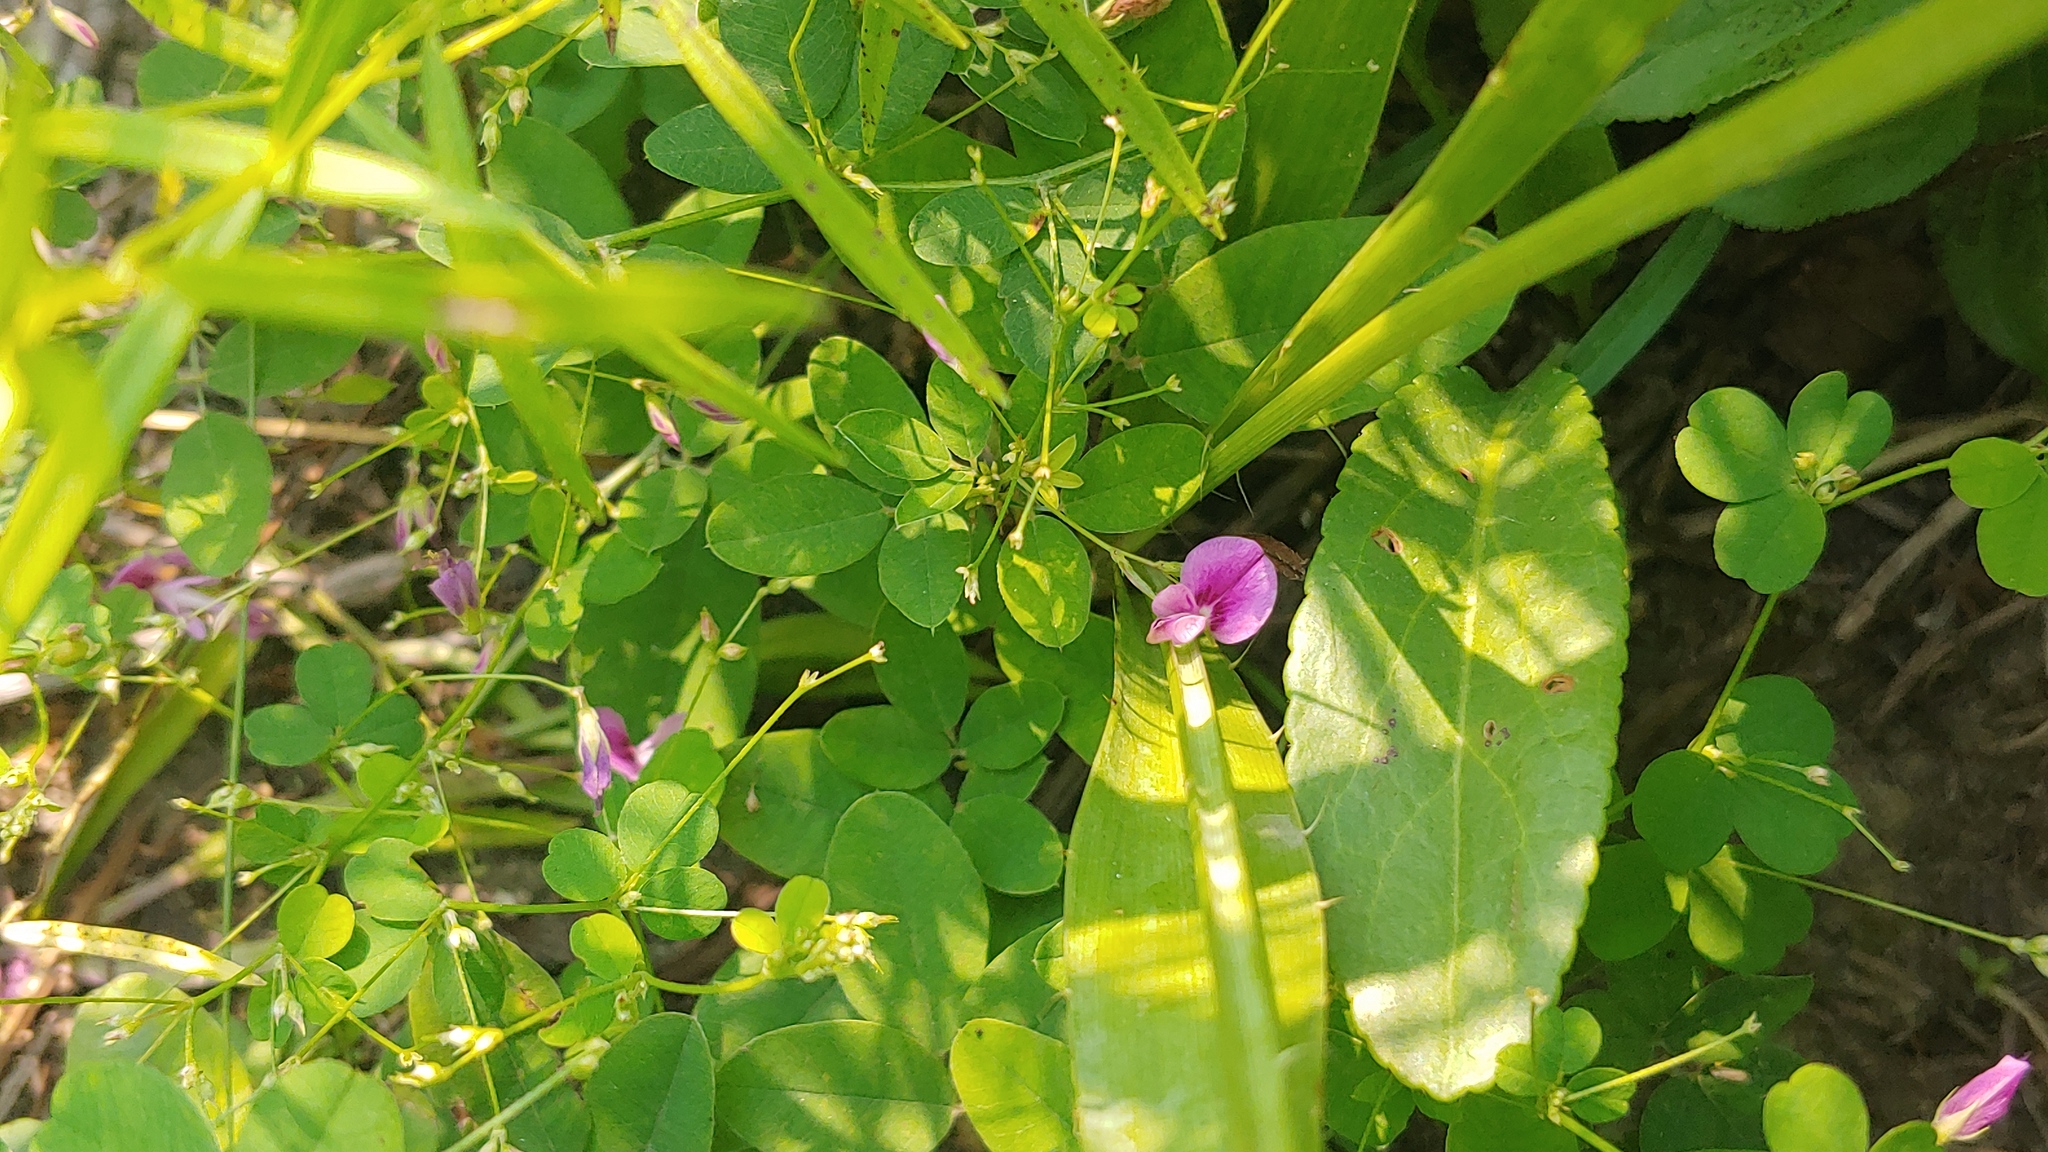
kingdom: Plantae
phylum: Tracheophyta
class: Magnoliopsida
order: Fabales
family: Fabaceae
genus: Lespedeza
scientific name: Lespedeza
